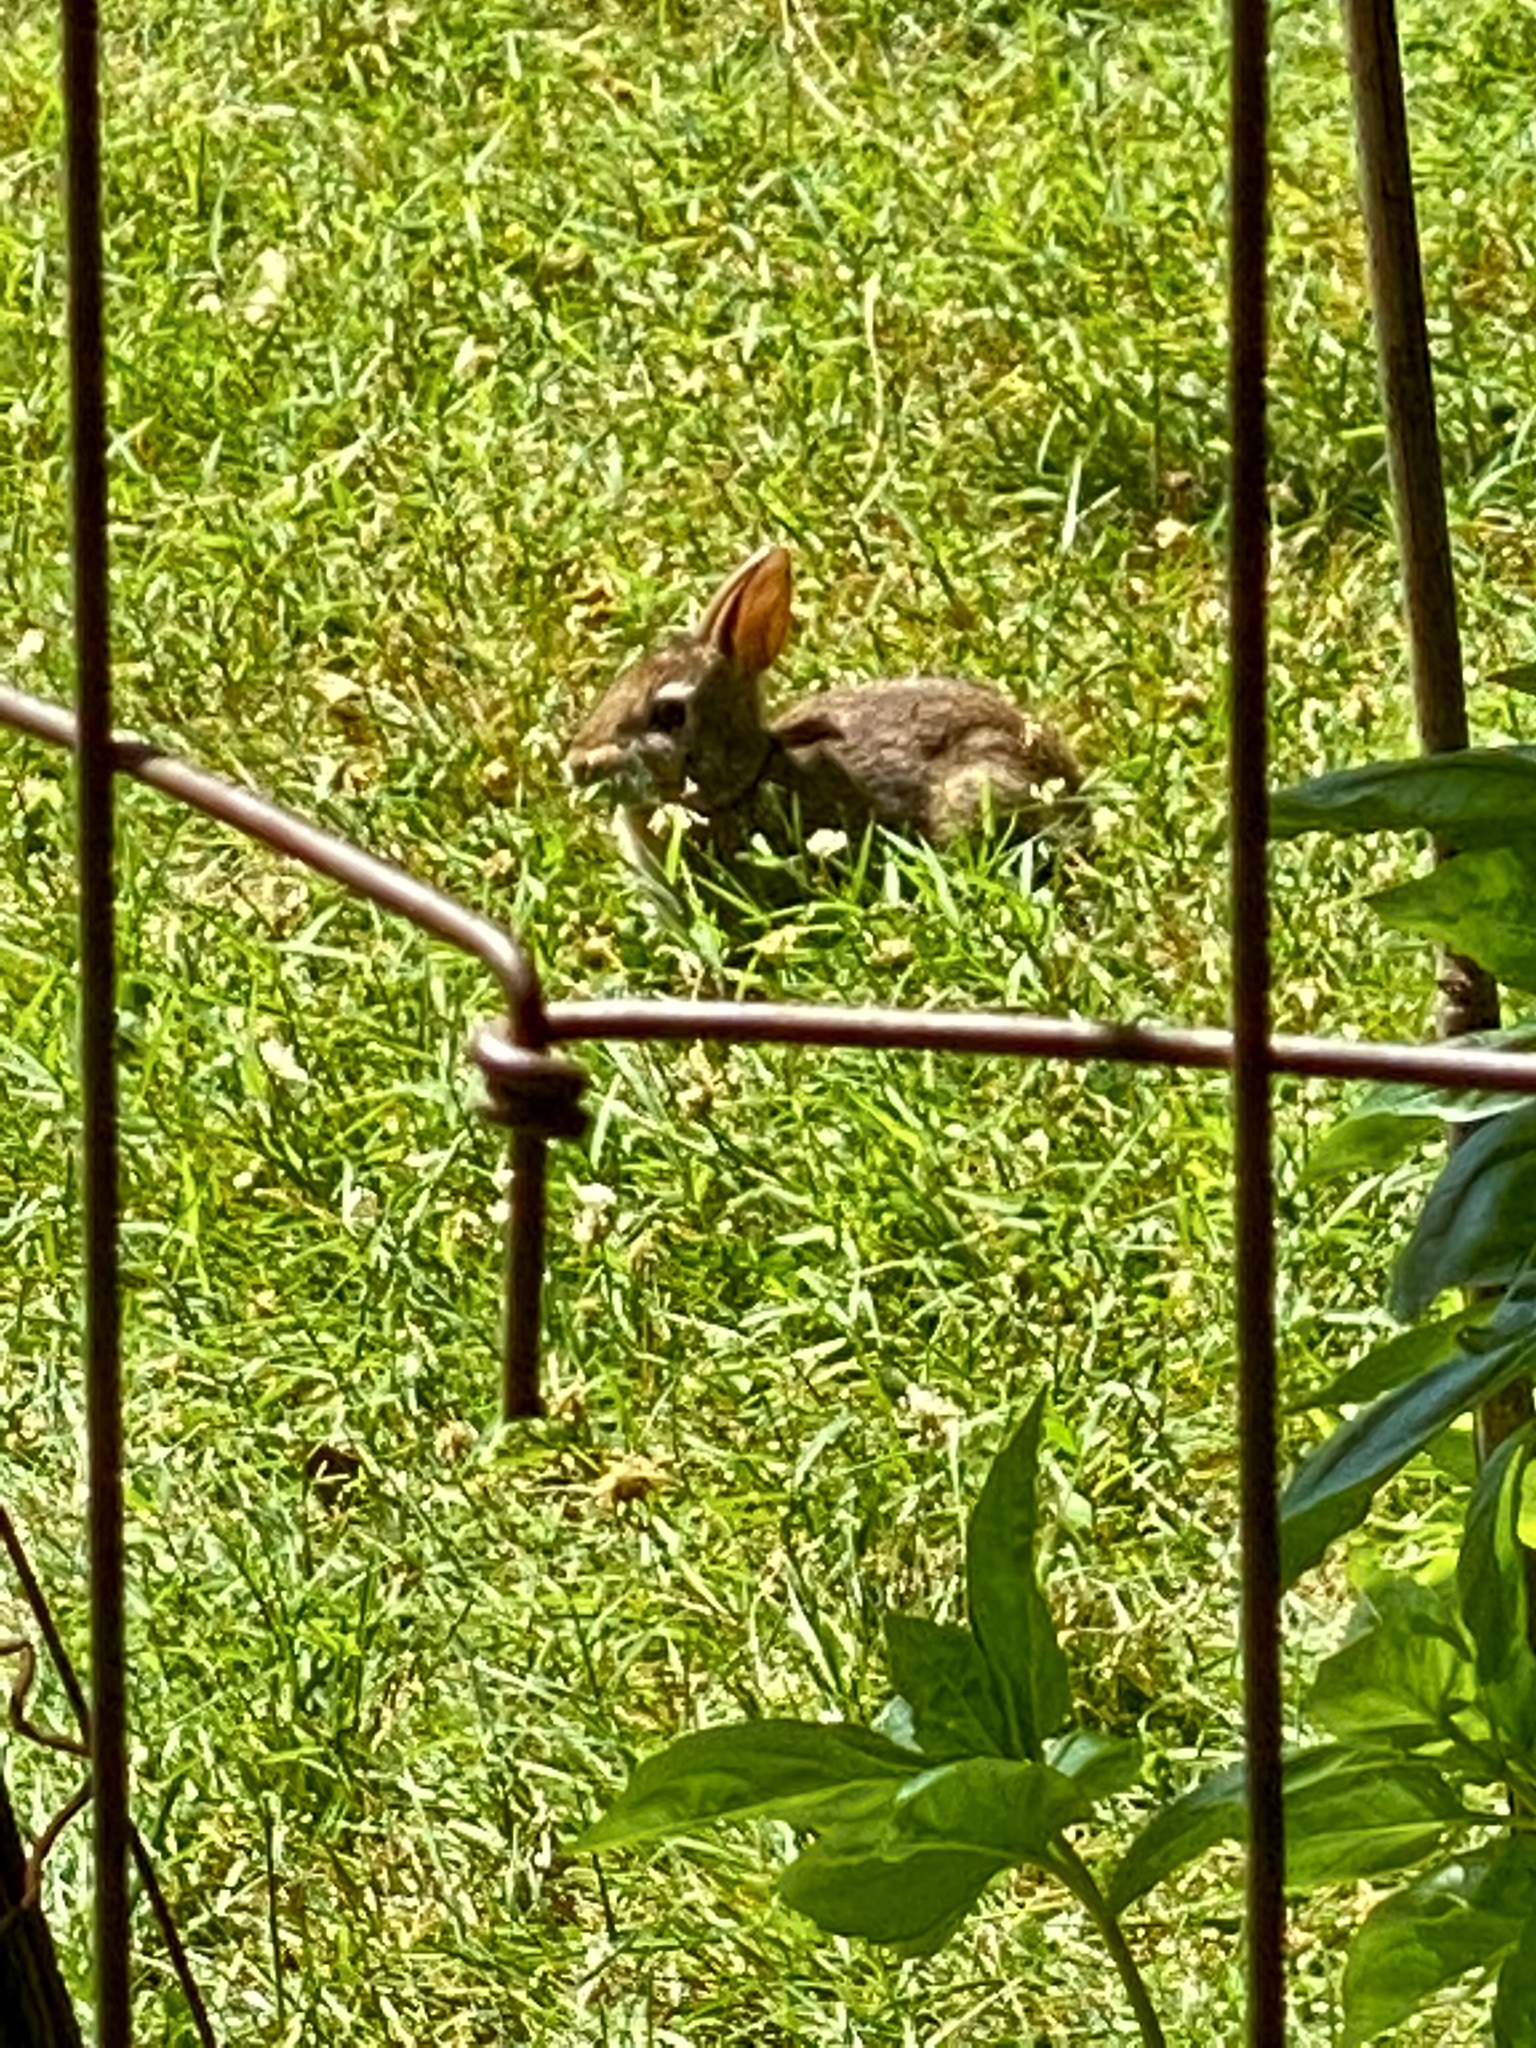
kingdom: Animalia
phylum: Chordata
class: Mammalia
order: Lagomorpha
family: Leporidae
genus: Sylvilagus
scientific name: Sylvilagus floridanus
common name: Eastern cottontail
